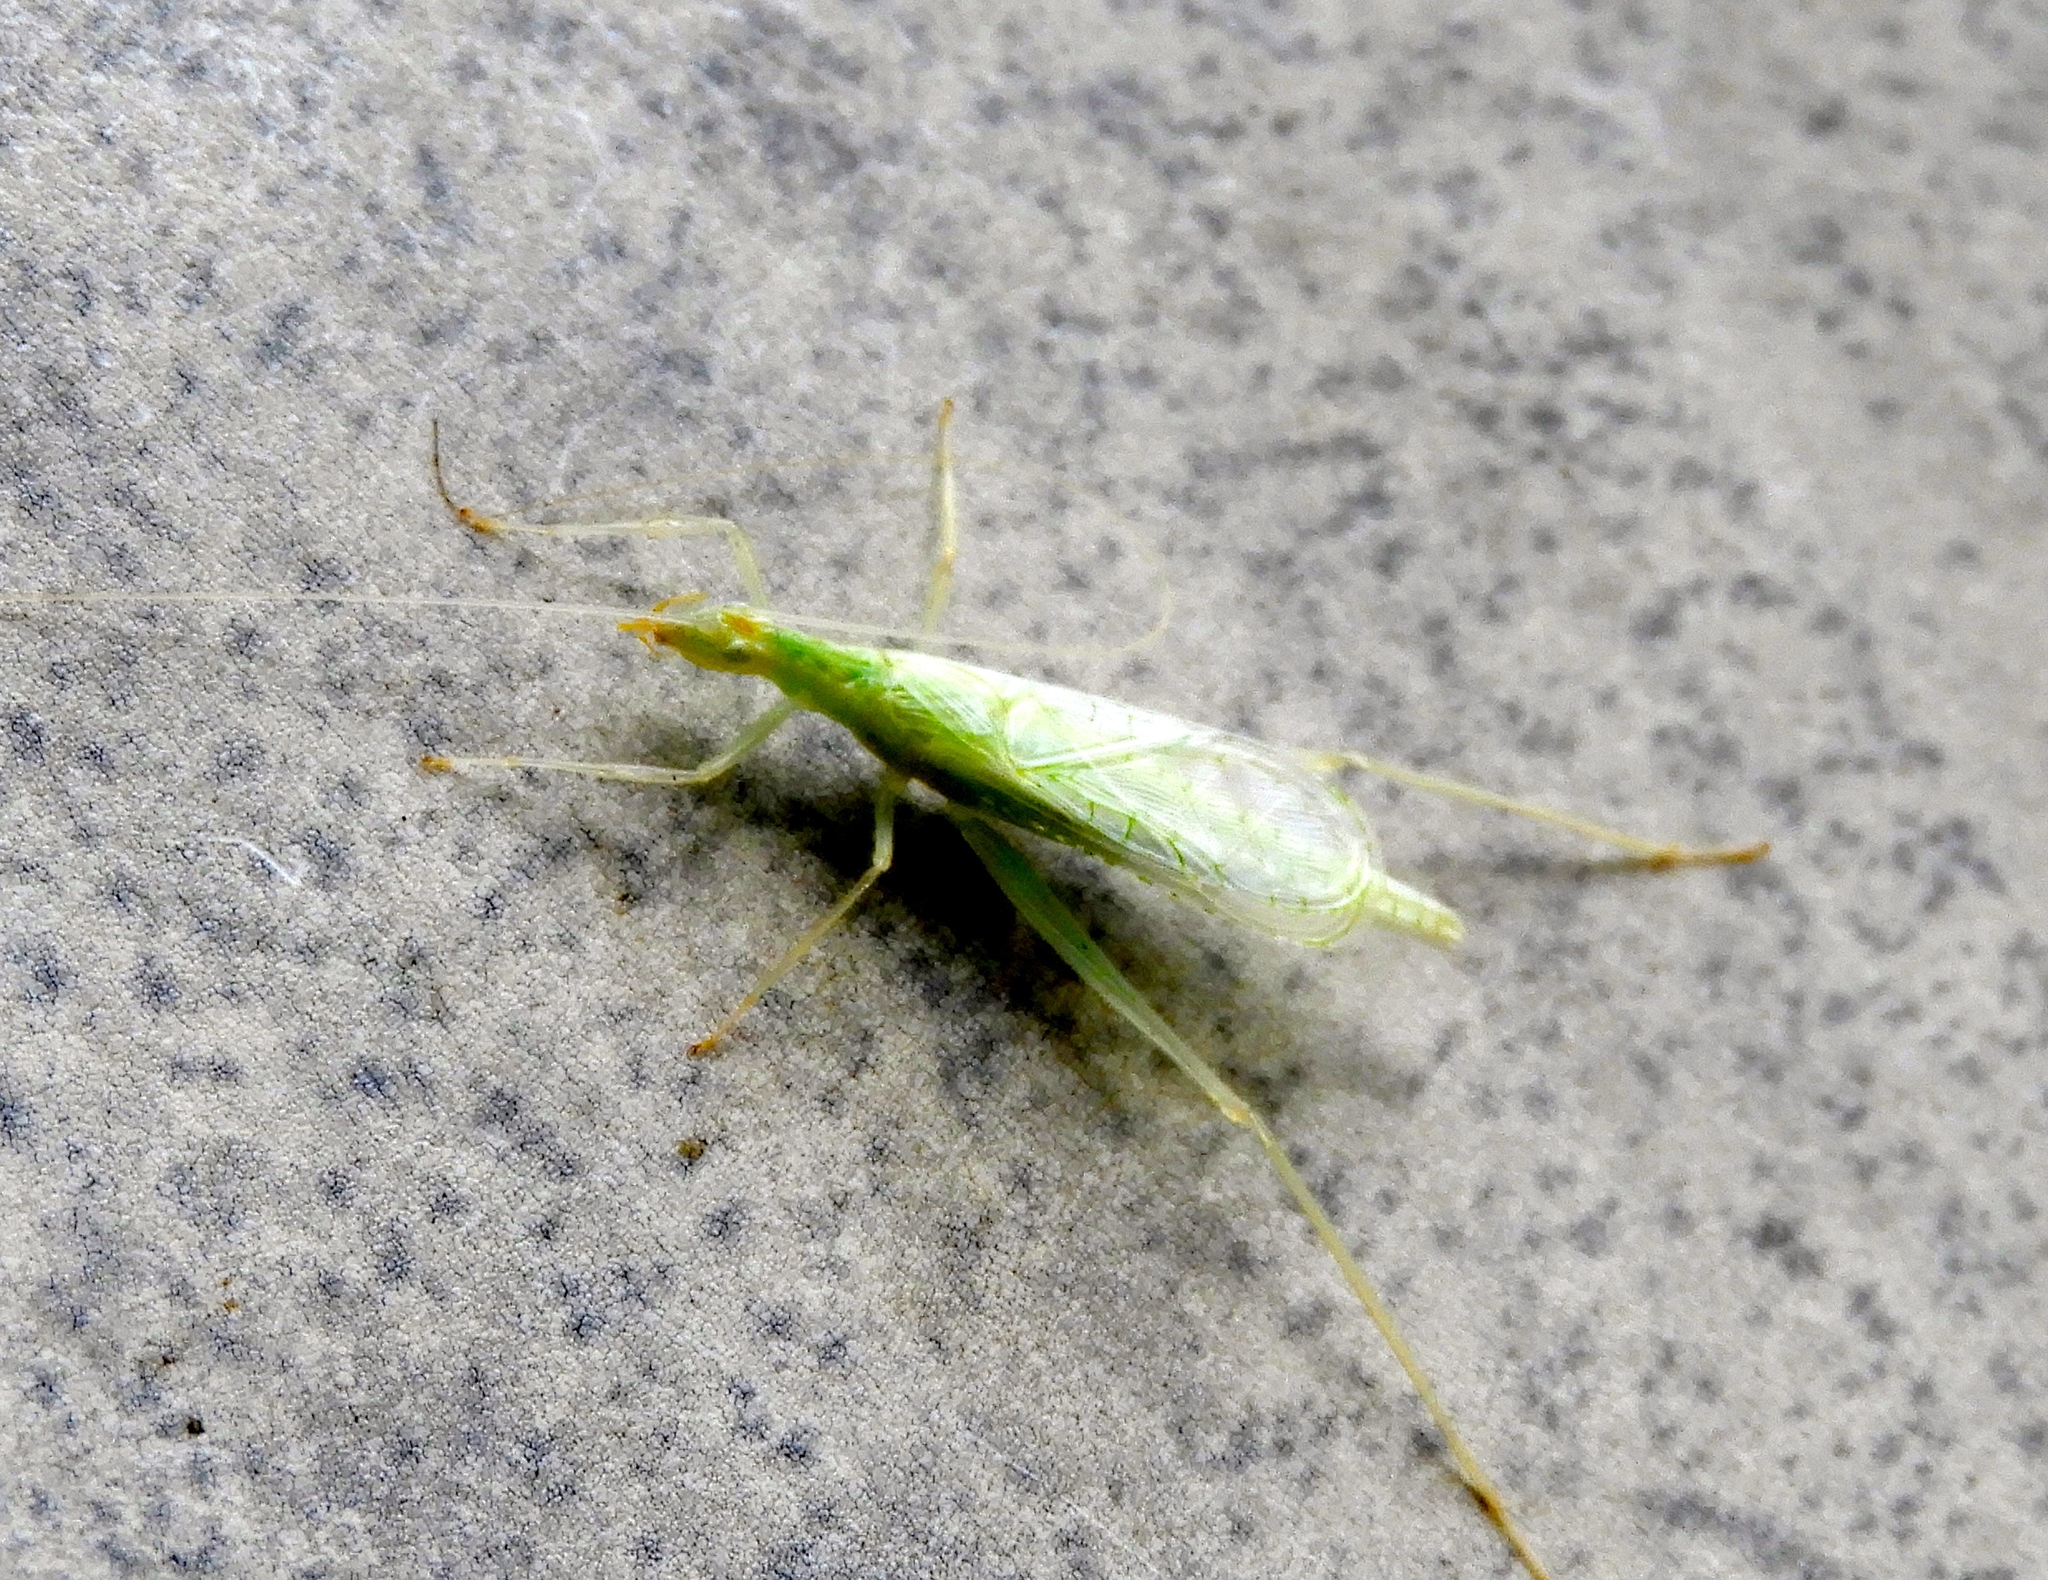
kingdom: Animalia
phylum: Arthropoda
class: Insecta
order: Orthoptera
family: Gryllidae
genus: Oecanthus
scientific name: Oecanthus
